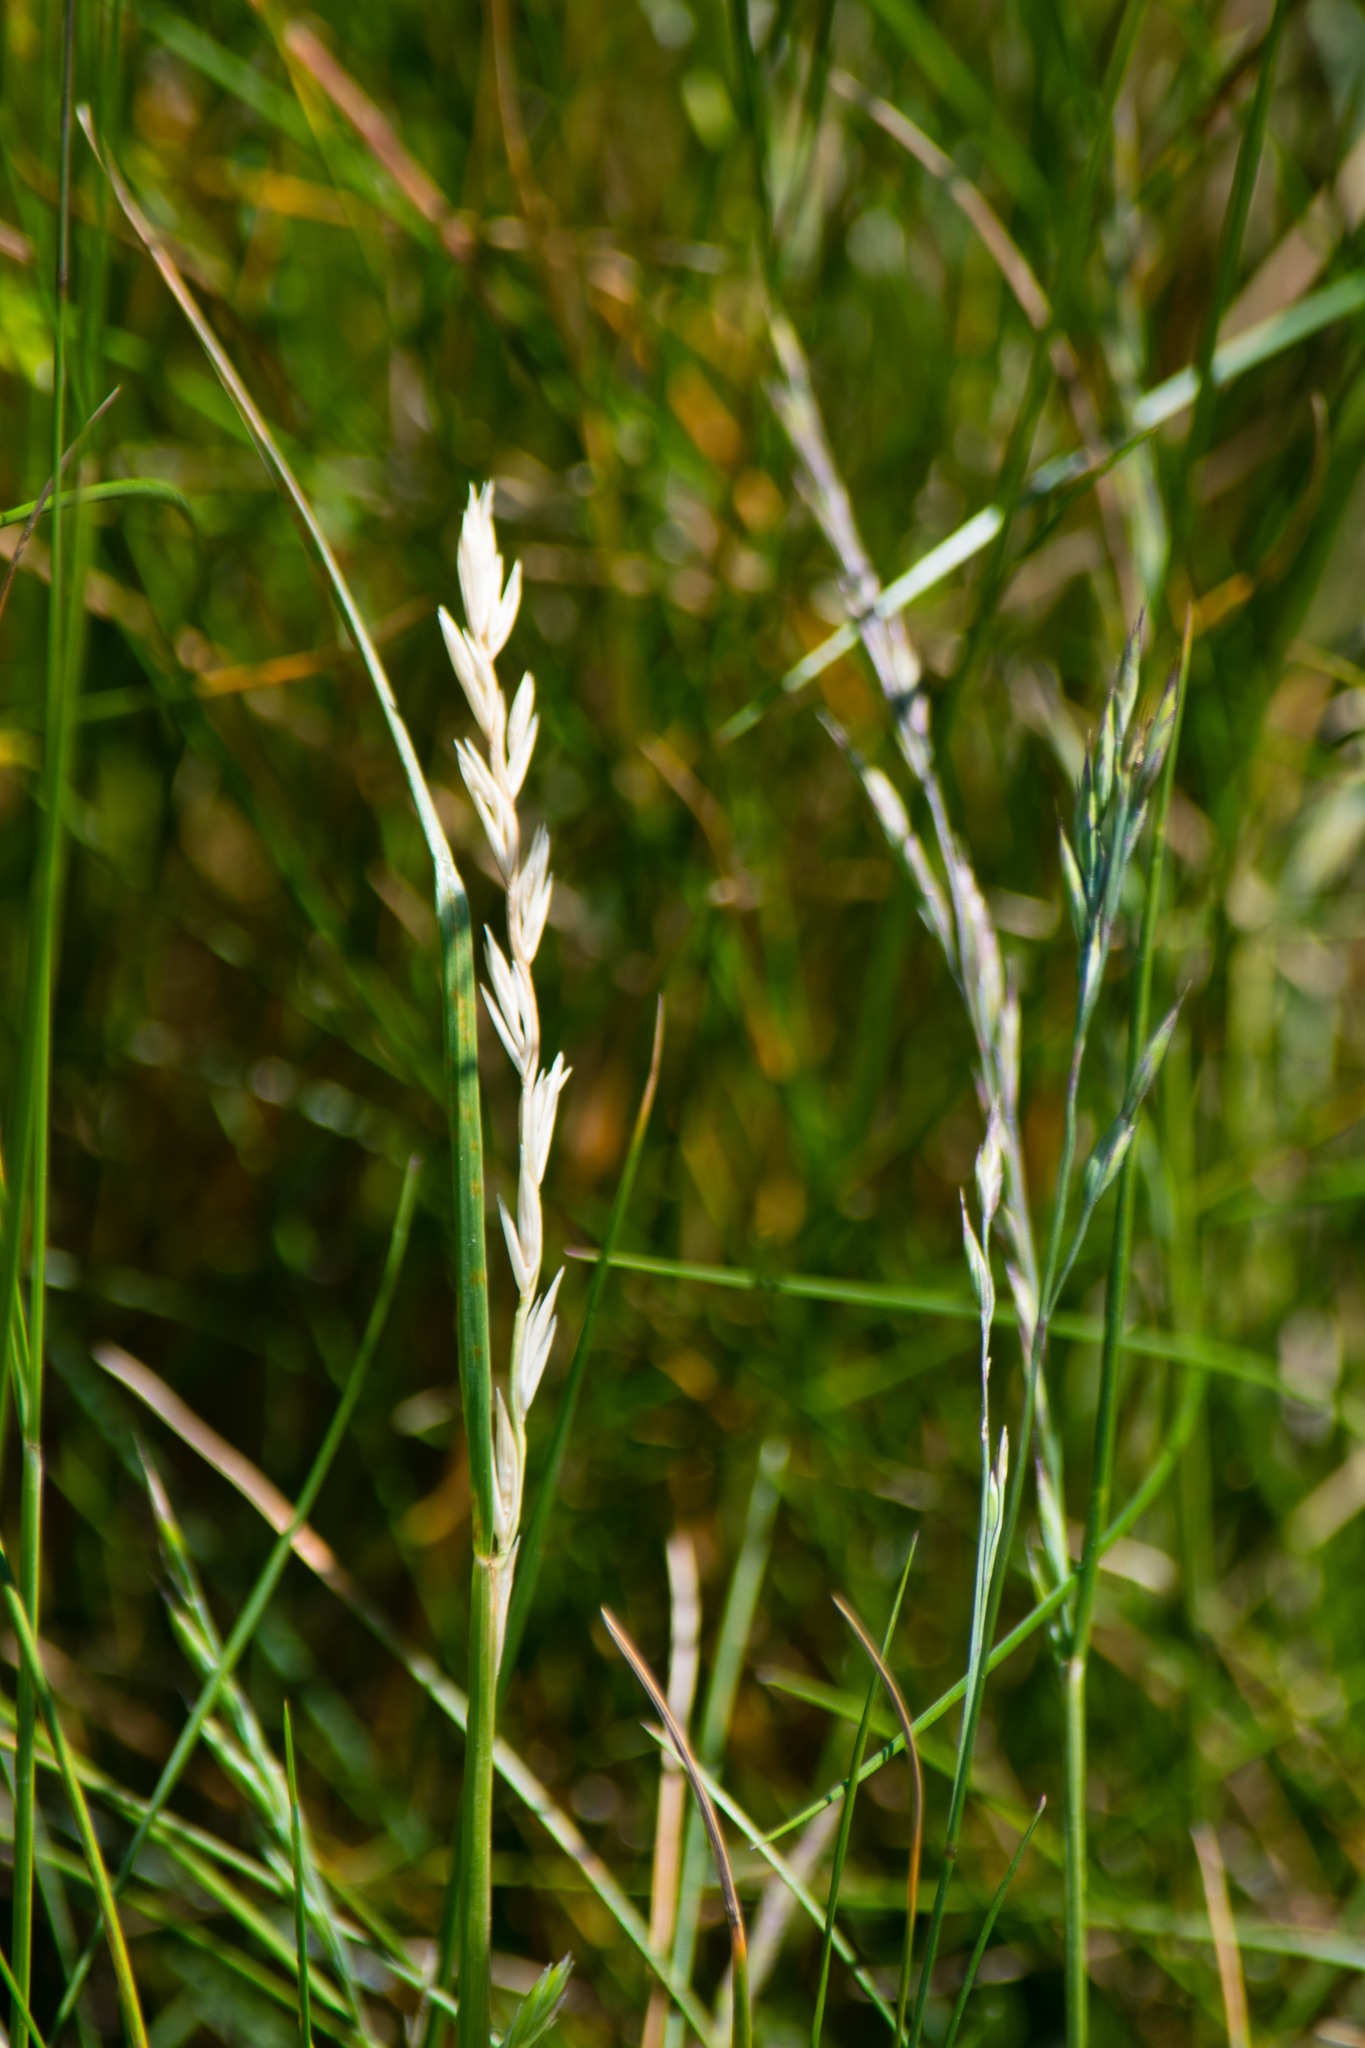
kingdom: Plantae
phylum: Tracheophyta
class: Liliopsida
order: Poales
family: Poaceae
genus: Lolium
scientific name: Lolium perenne
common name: Perennial ryegrass
